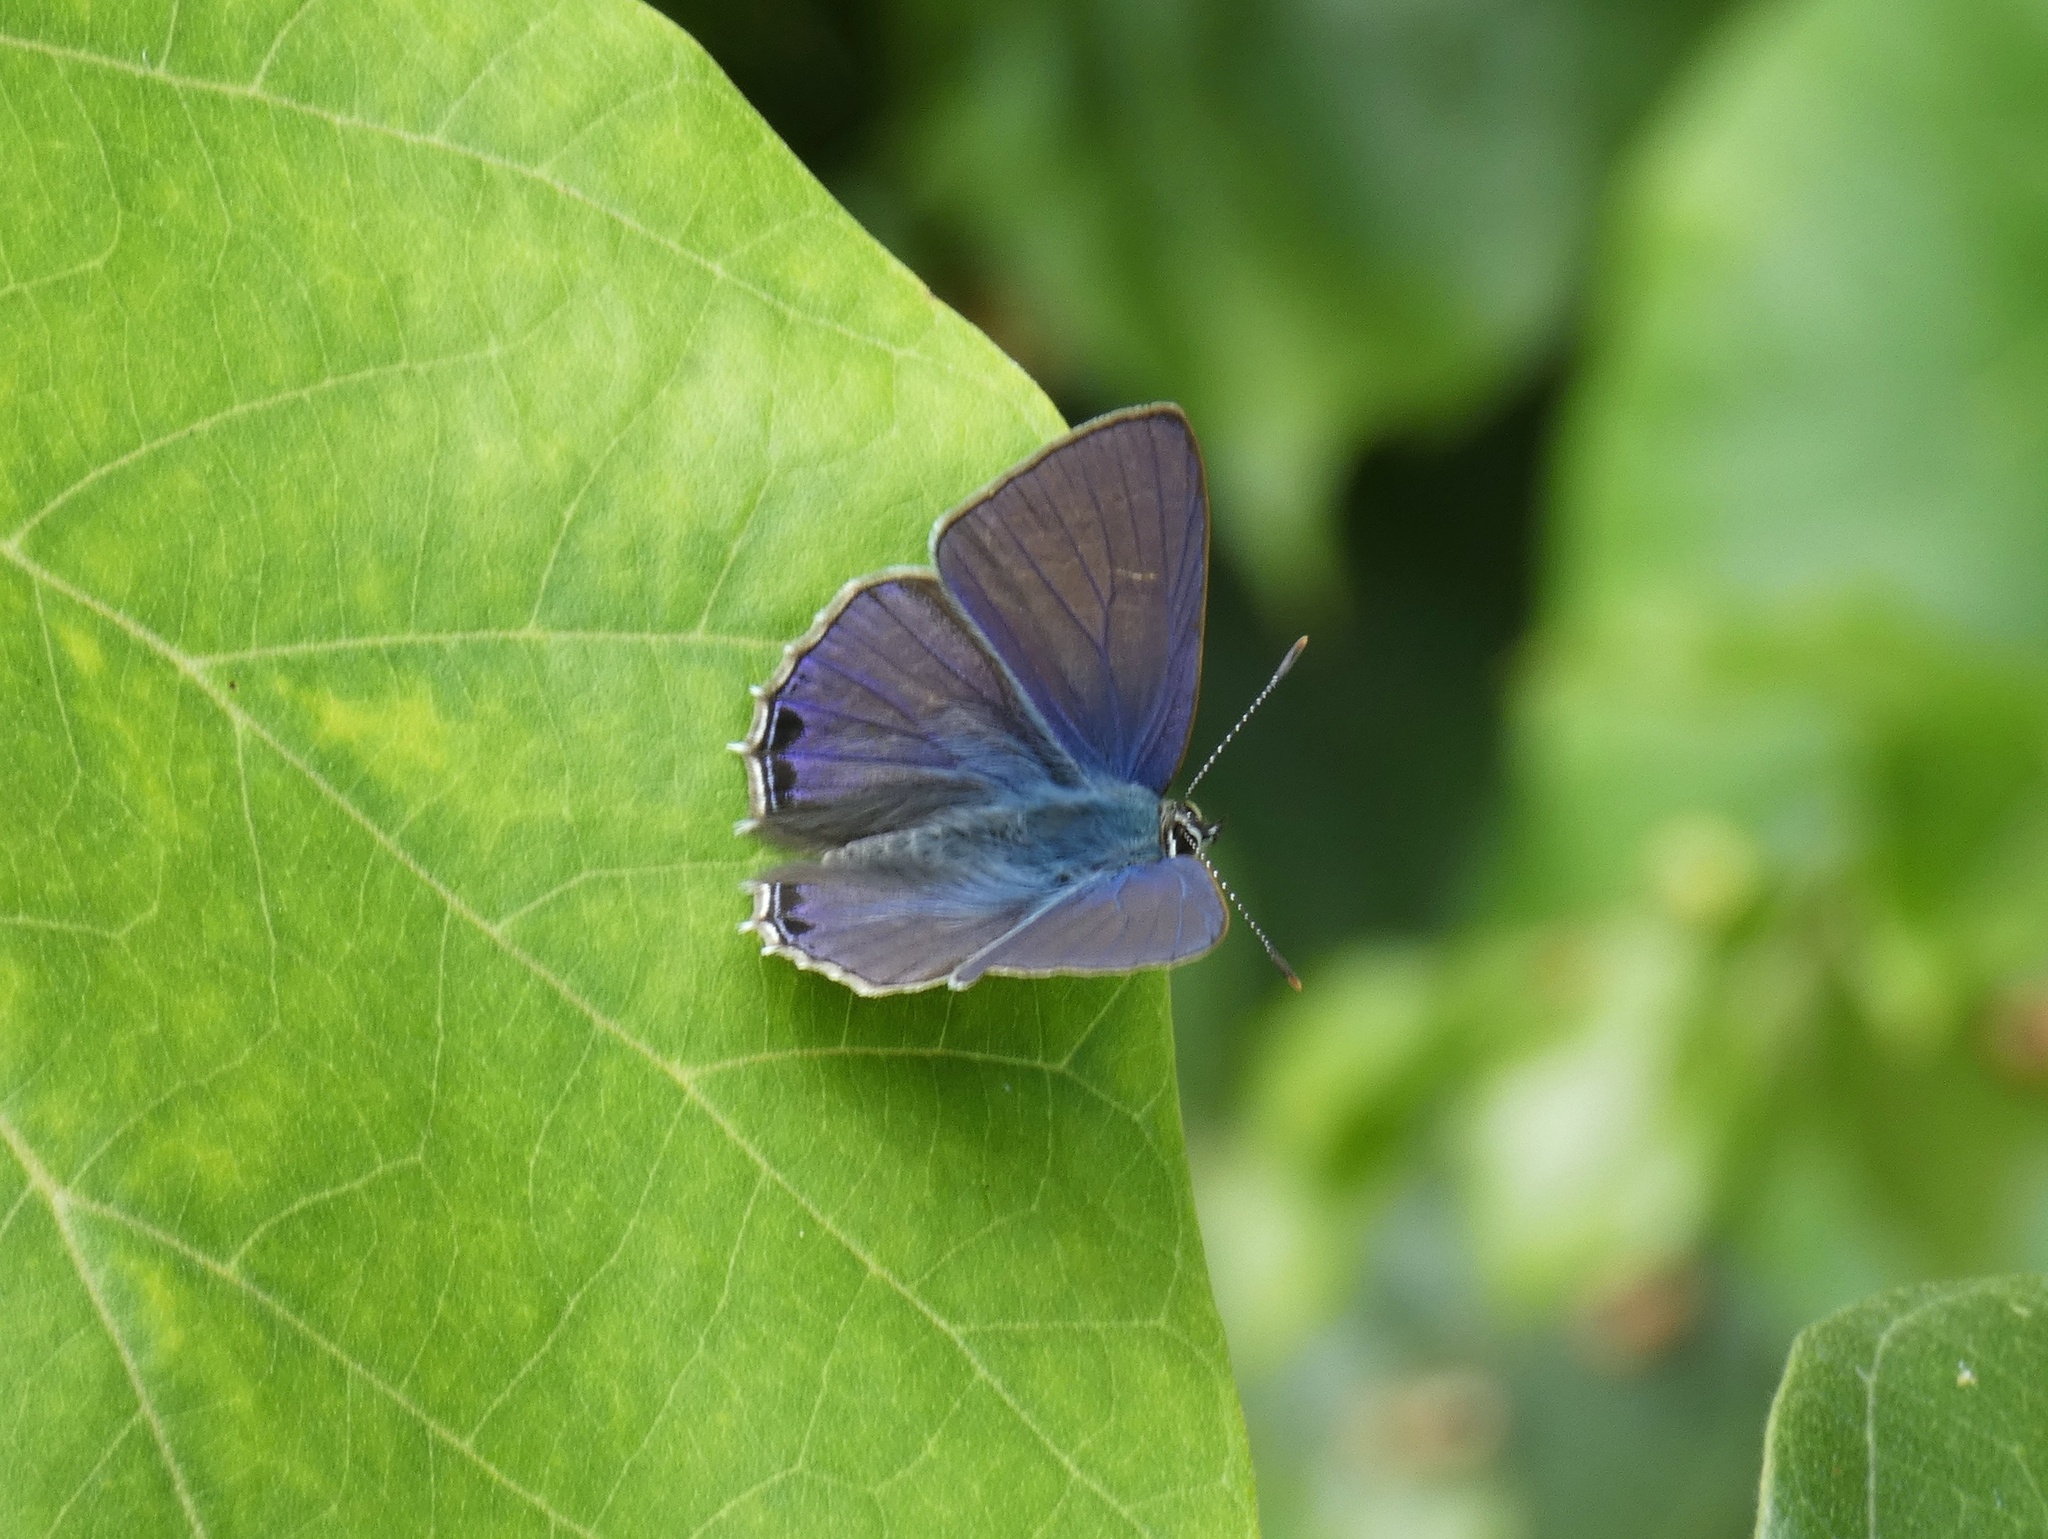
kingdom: Animalia
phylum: Arthropoda
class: Insecta
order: Lepidoptera
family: Lycaenidae
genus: Anthene
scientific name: Anthene seltuttus
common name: Dark ciliated-blue
